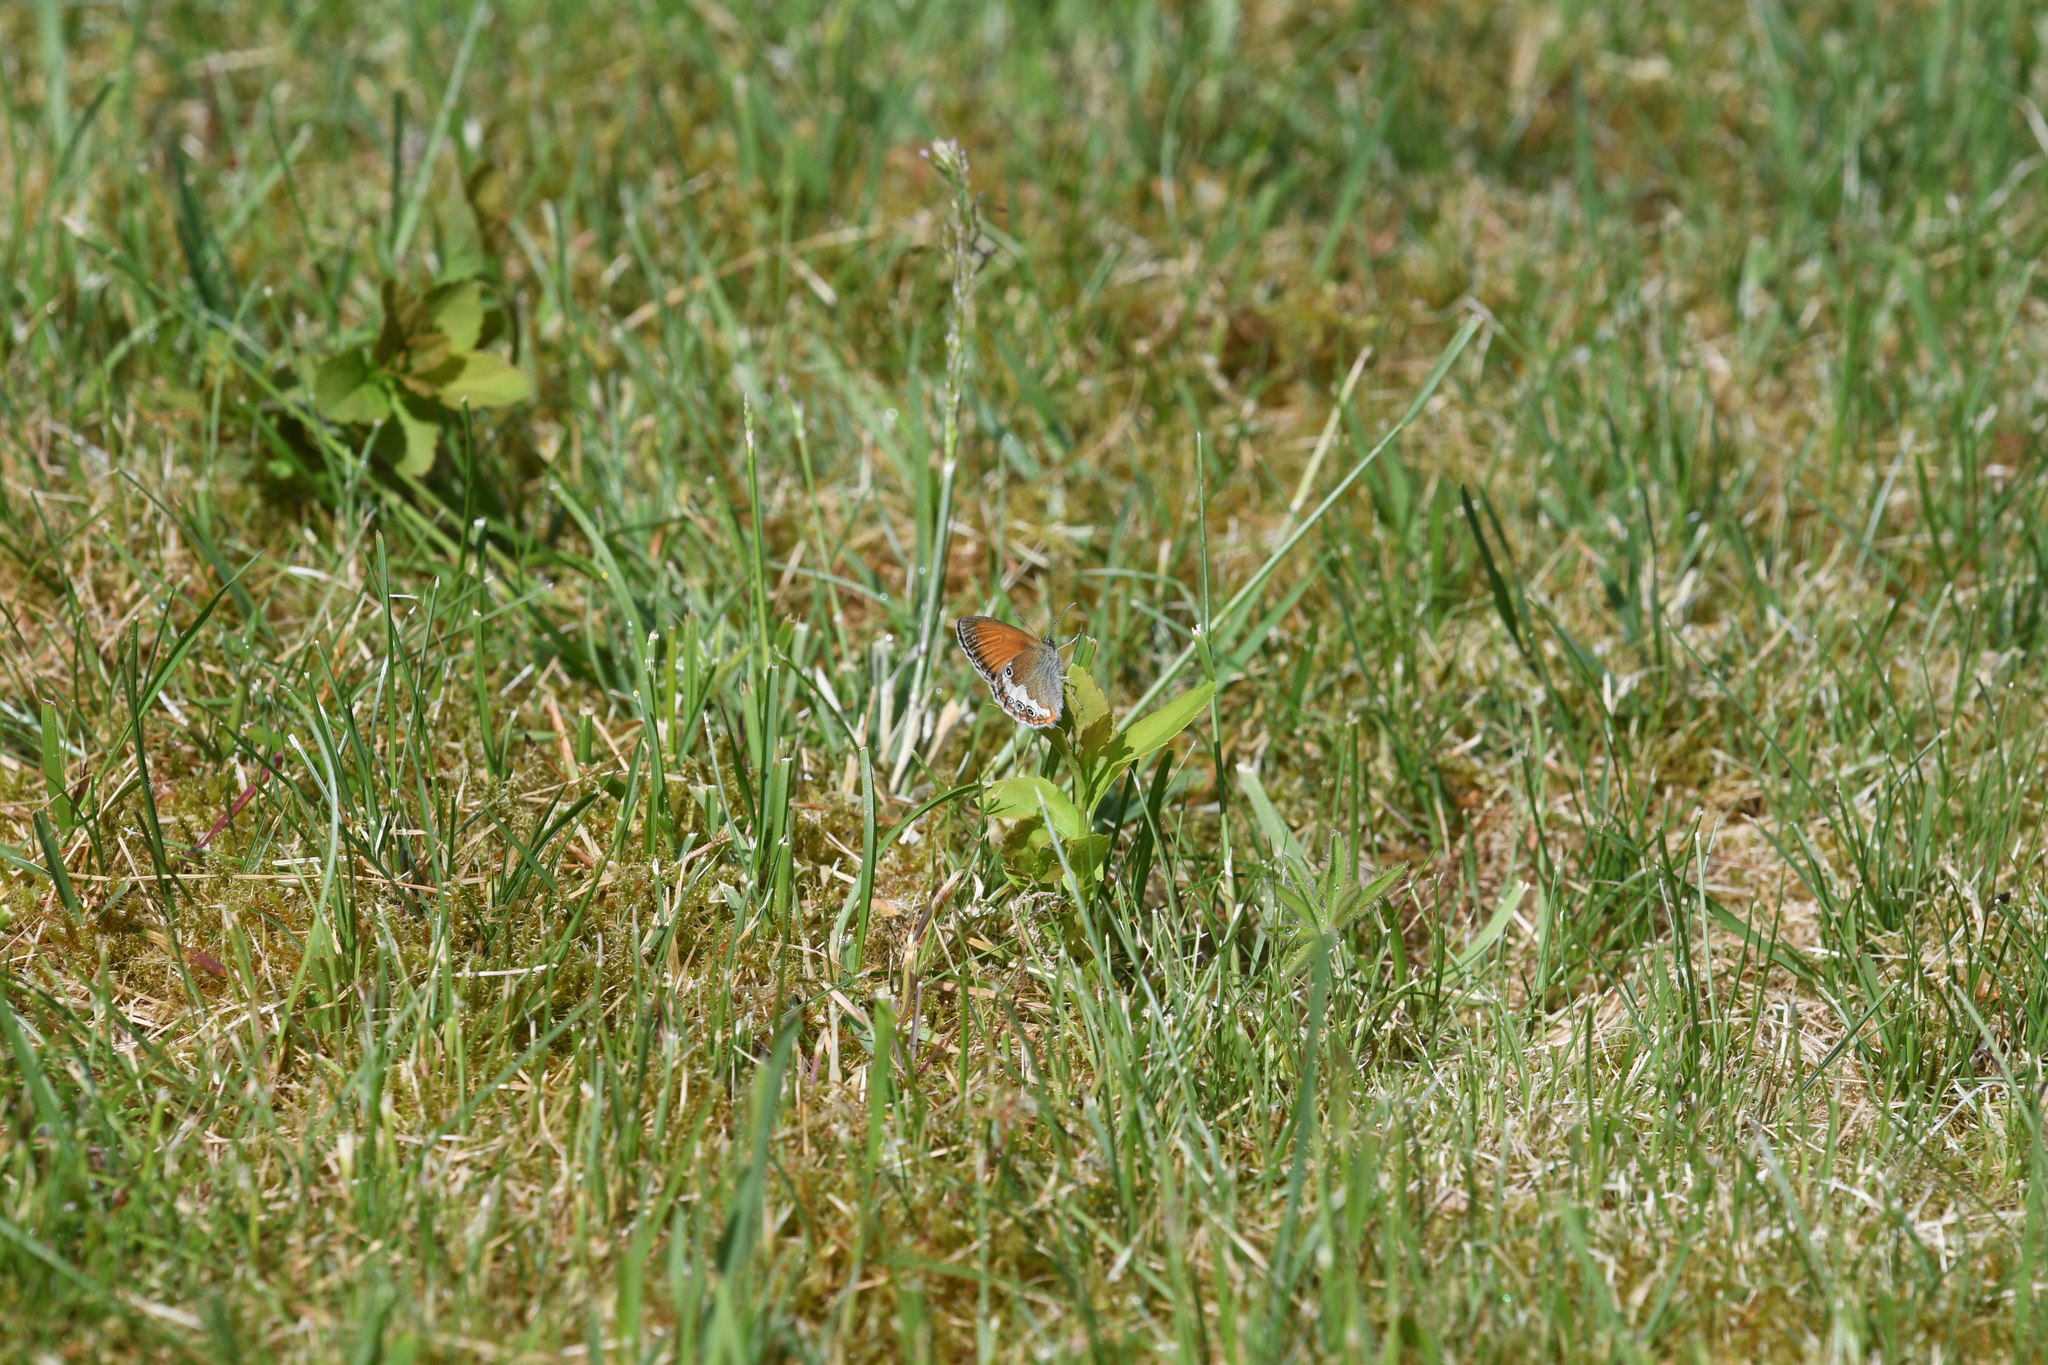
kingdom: Animalia
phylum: Arthropoda
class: Insecta
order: Lepidoptera
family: Nymphalidae
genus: Coenonympha
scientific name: Coenonympha arcania
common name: Pearly heath
